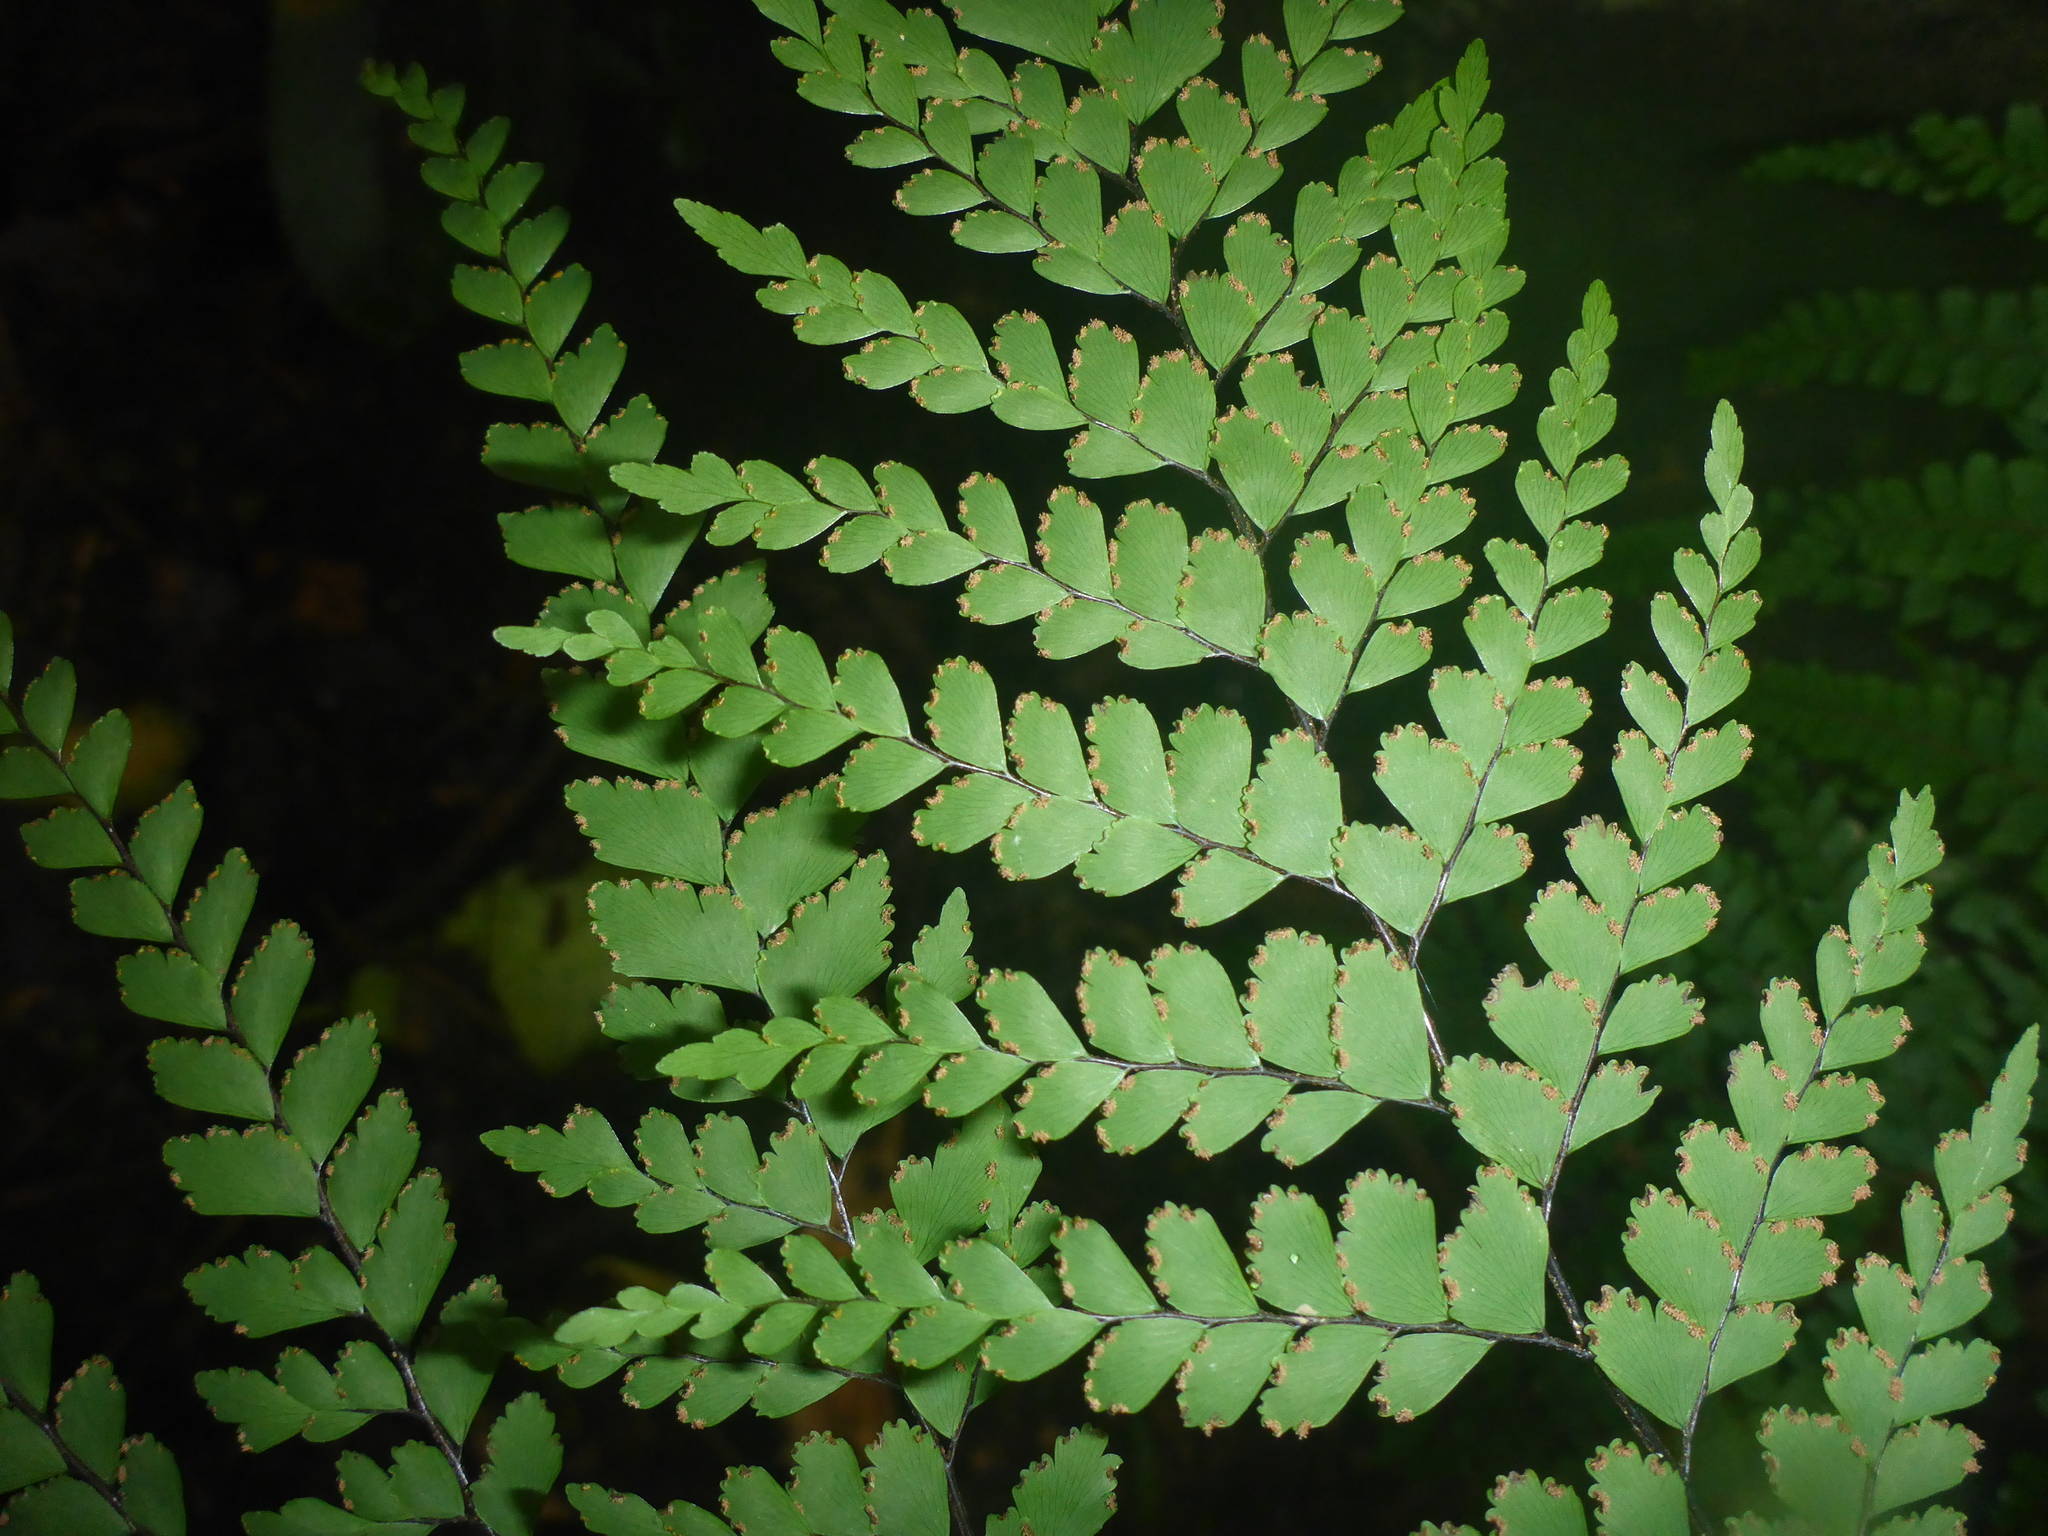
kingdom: Plantae
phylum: Tracheophyta
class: Polypodiopsida
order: Polypodiales
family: Pteridaceae
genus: Adiantum
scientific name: Adiantum formosum
